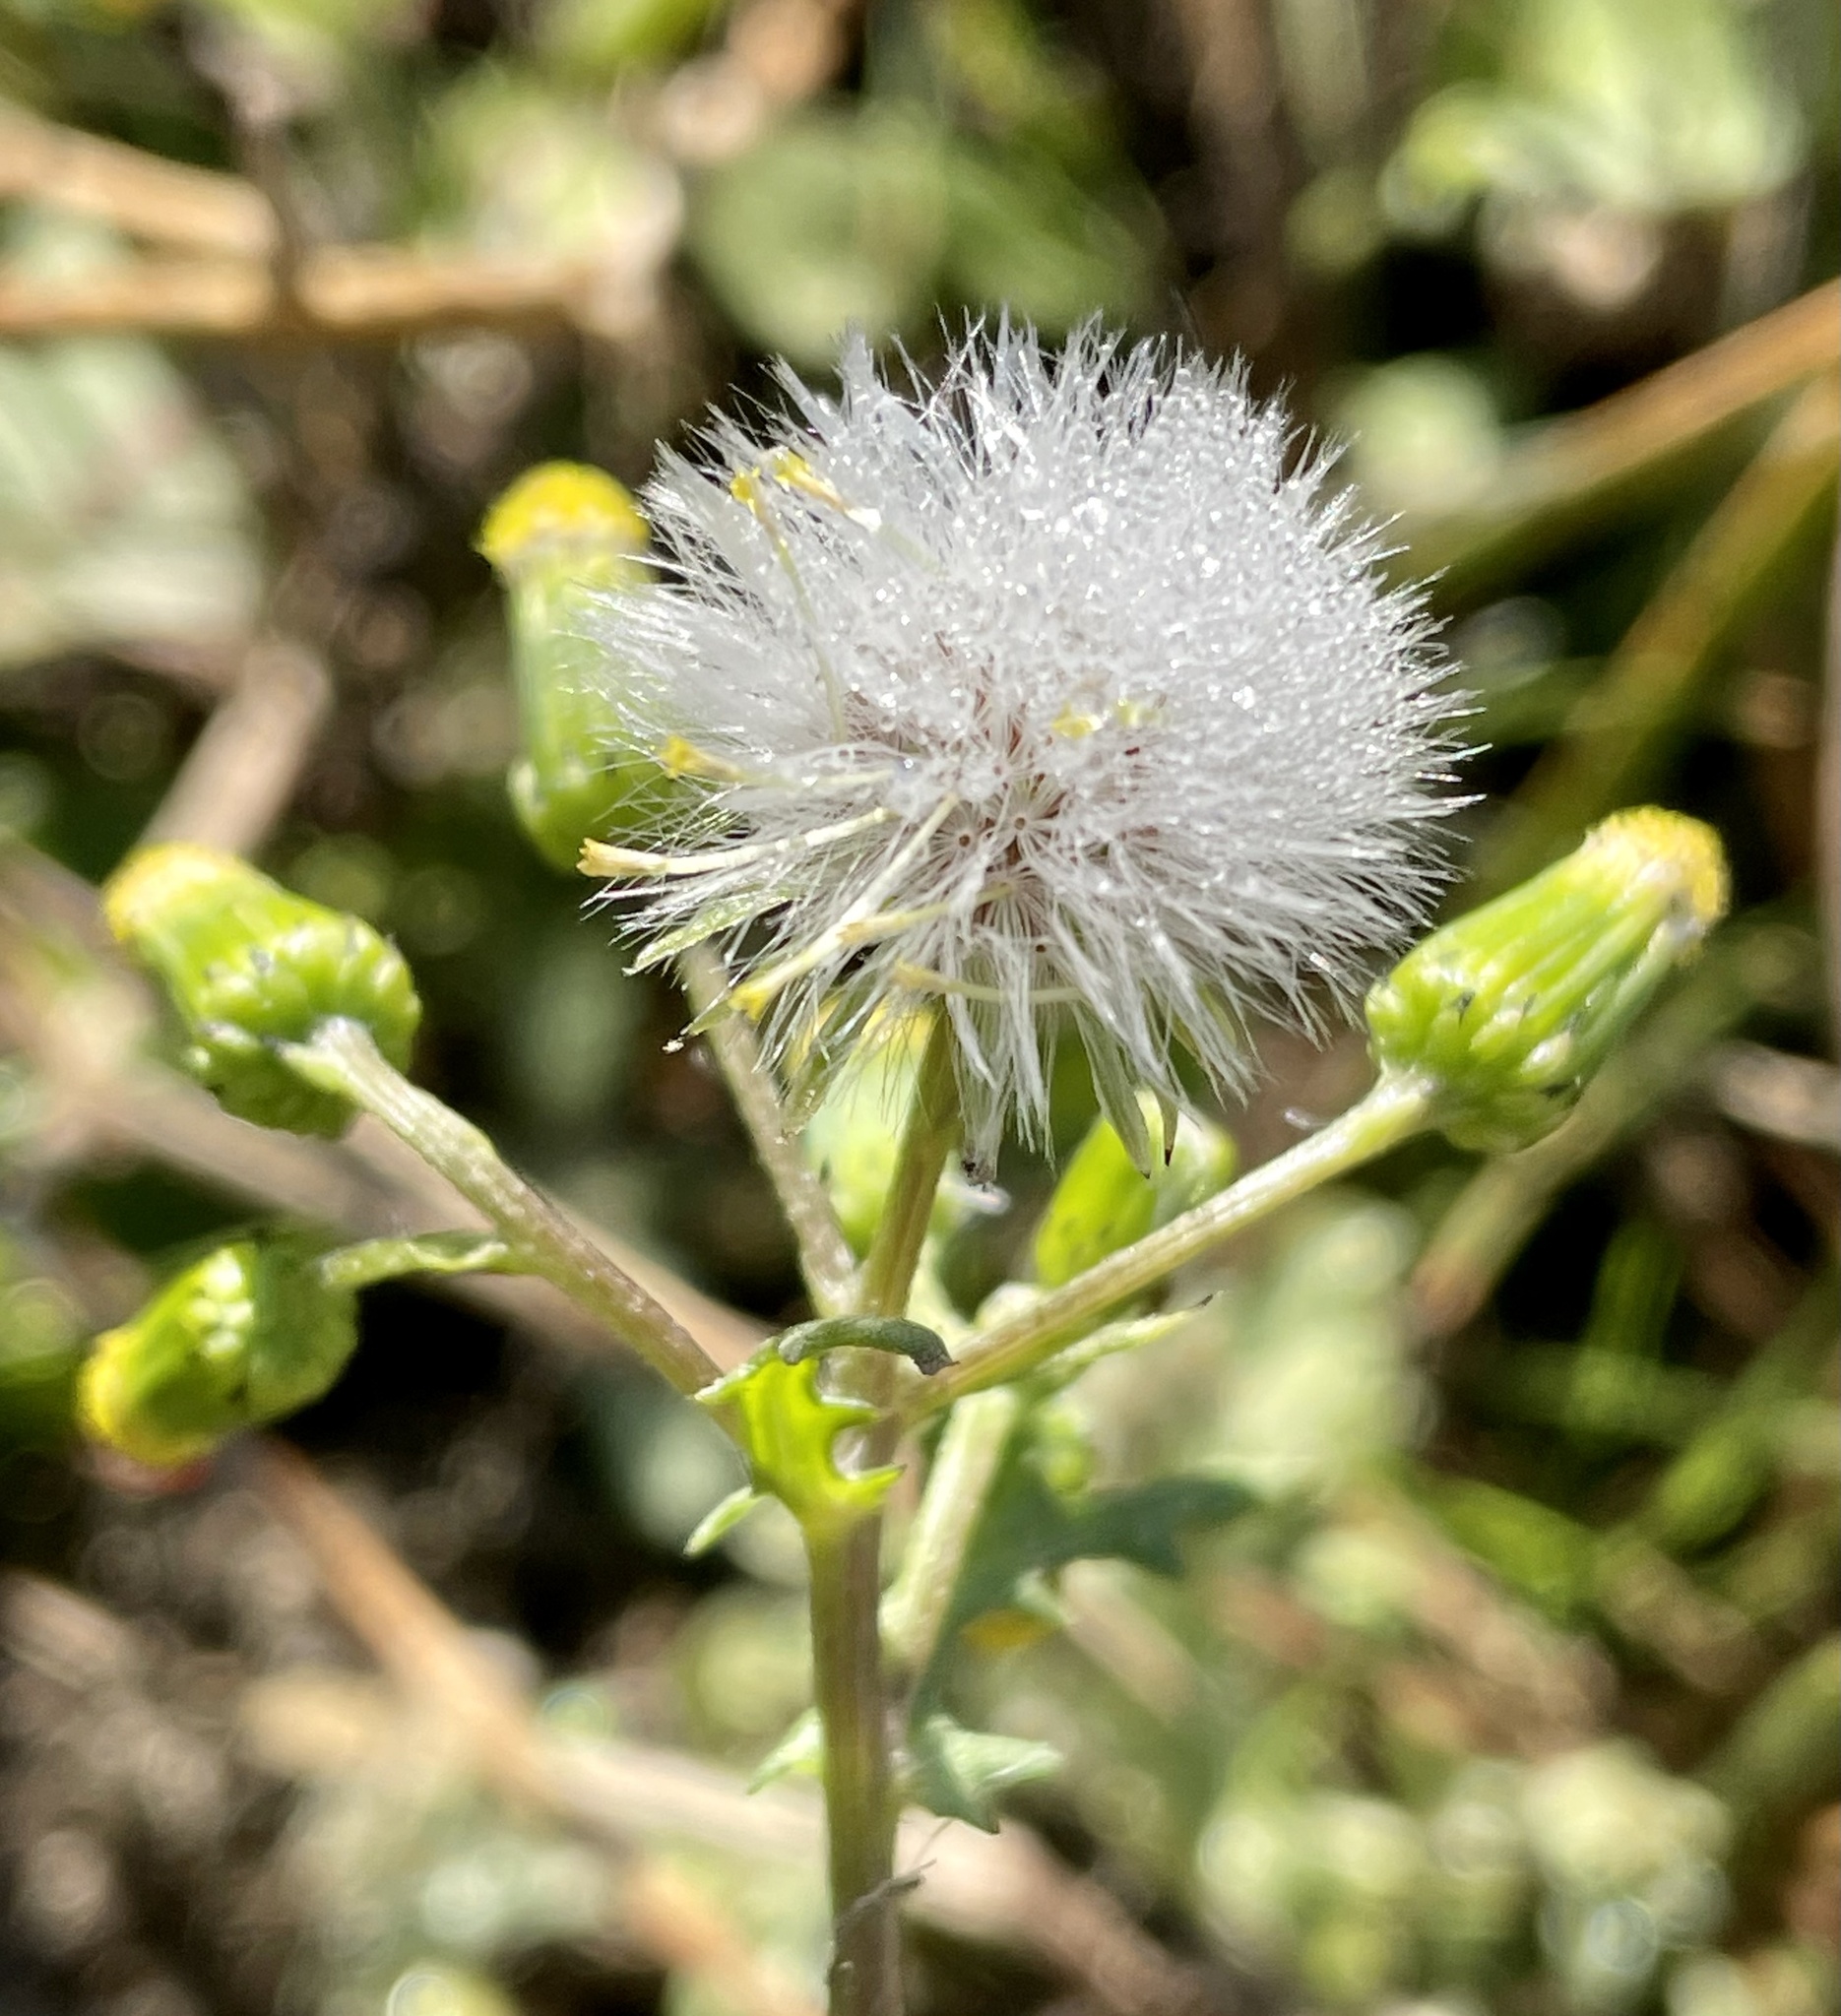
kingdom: Plantae
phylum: Tracheophyta
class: Magnoliopsida
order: Asterales
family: Asteraceae
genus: Senecio
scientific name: Senecio vulgaris
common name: Old-man-in-the-spring
